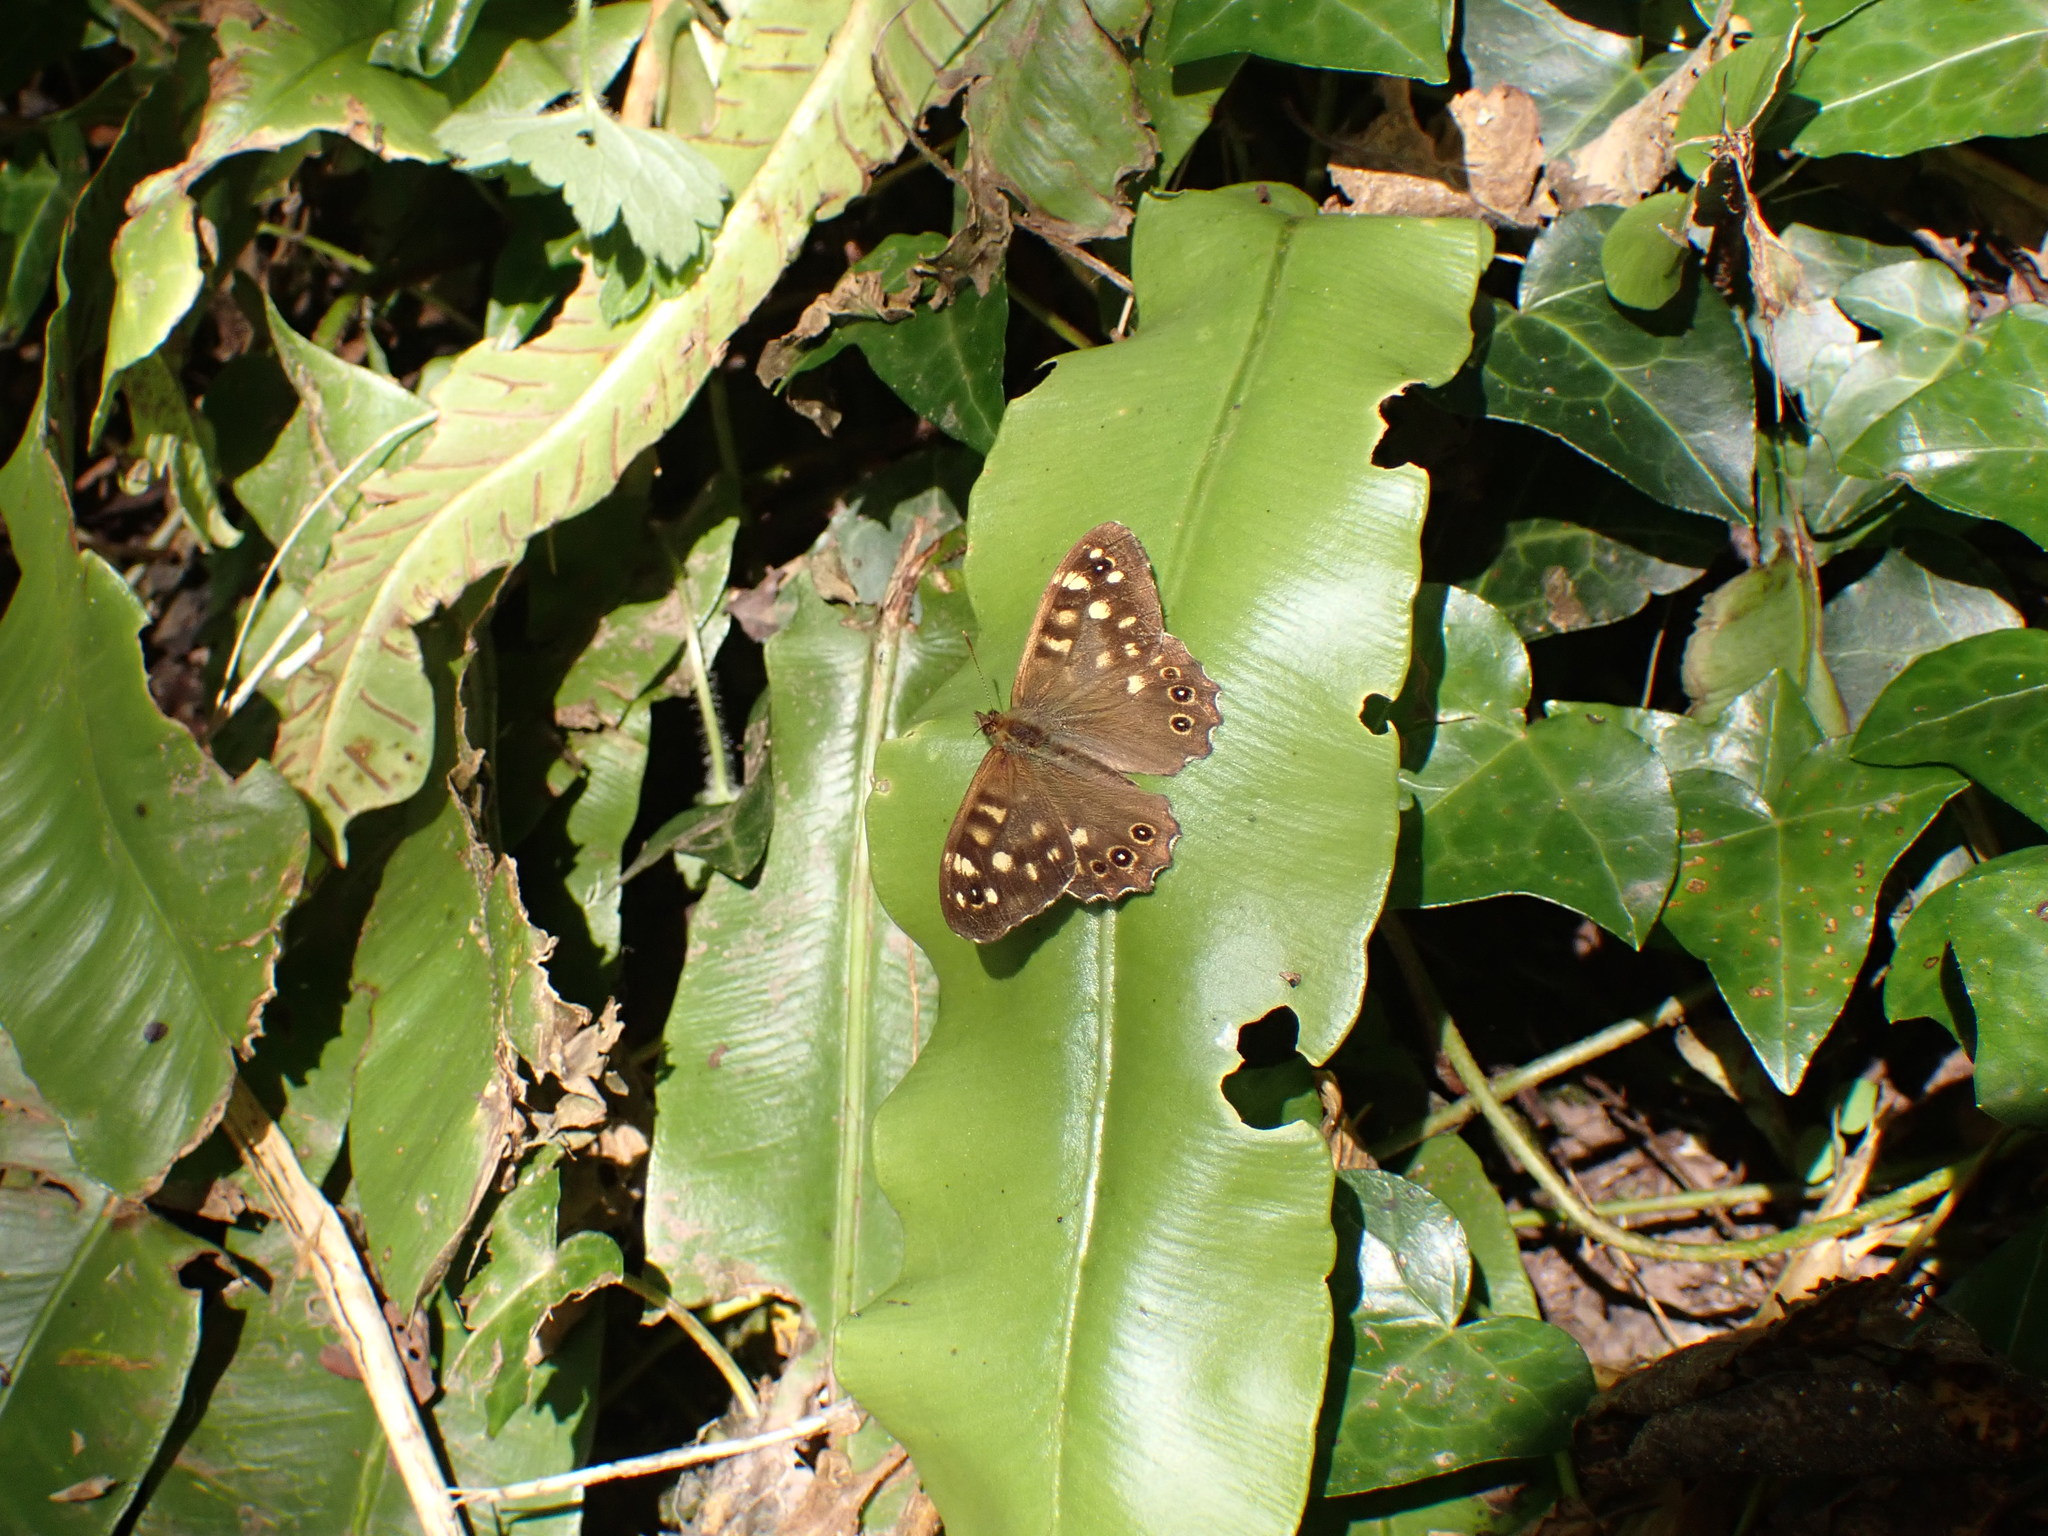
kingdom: Animalia
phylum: Arthropoda
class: Insecta
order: Lepidoptera
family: Nymphalidae
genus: Pararge
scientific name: Pararge aegeria
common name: Speckled wood
